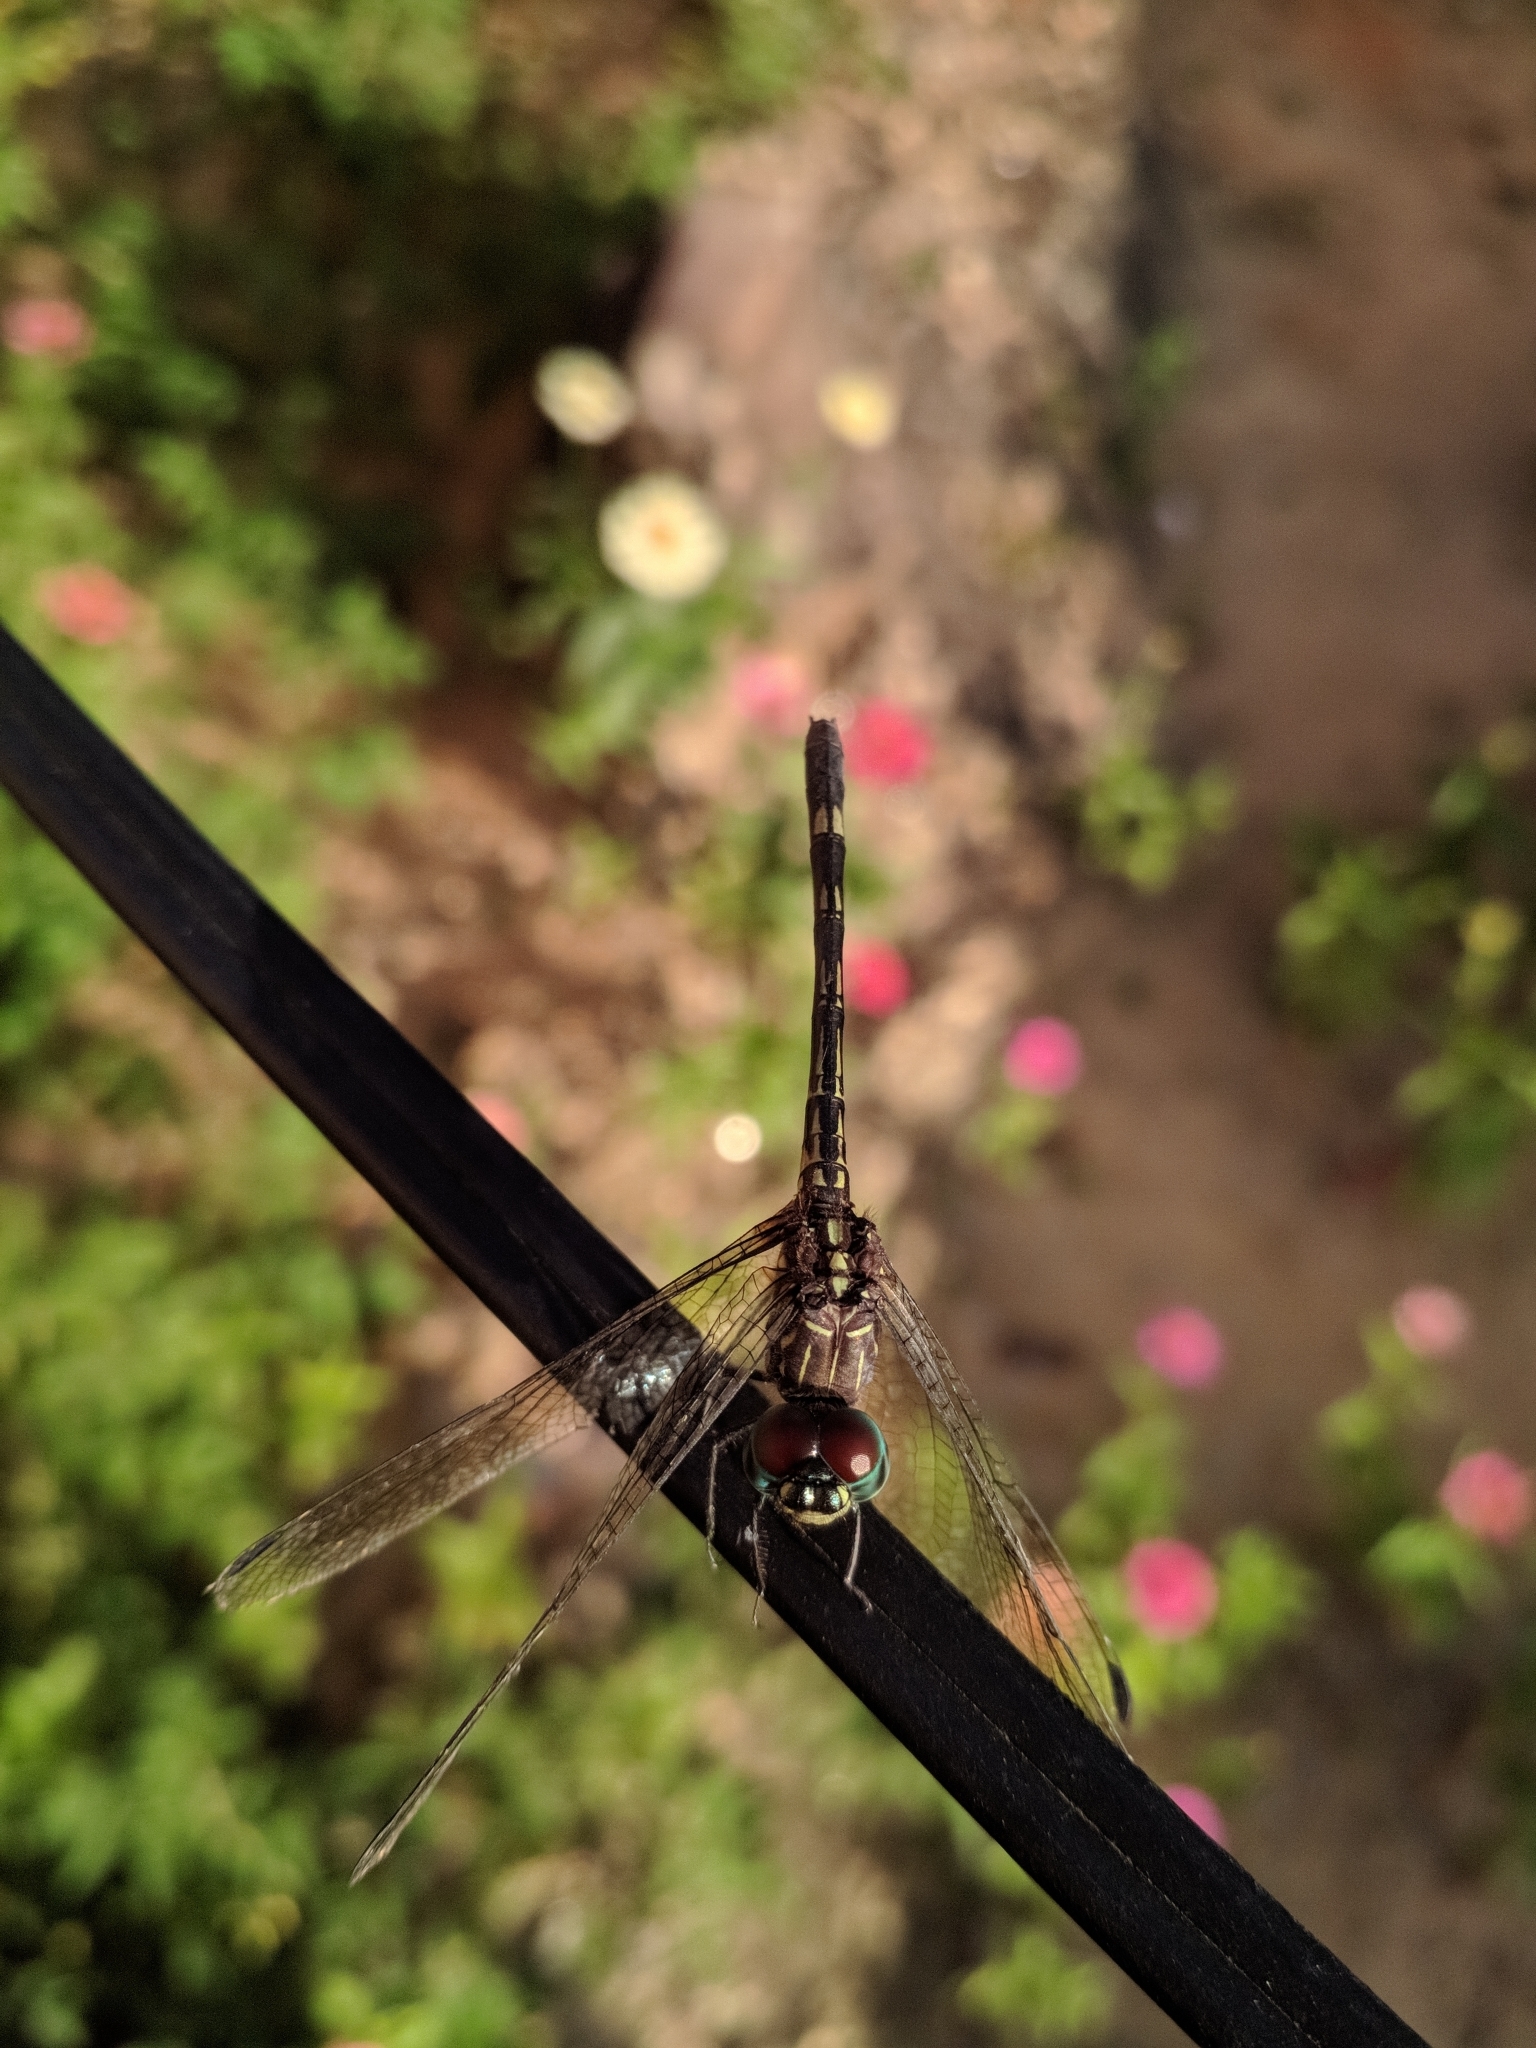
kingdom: Animalia
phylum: Arthropoda
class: Insecta
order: Odonata
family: Libellulidae
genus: Dythemis
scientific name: Dythemis nigra
